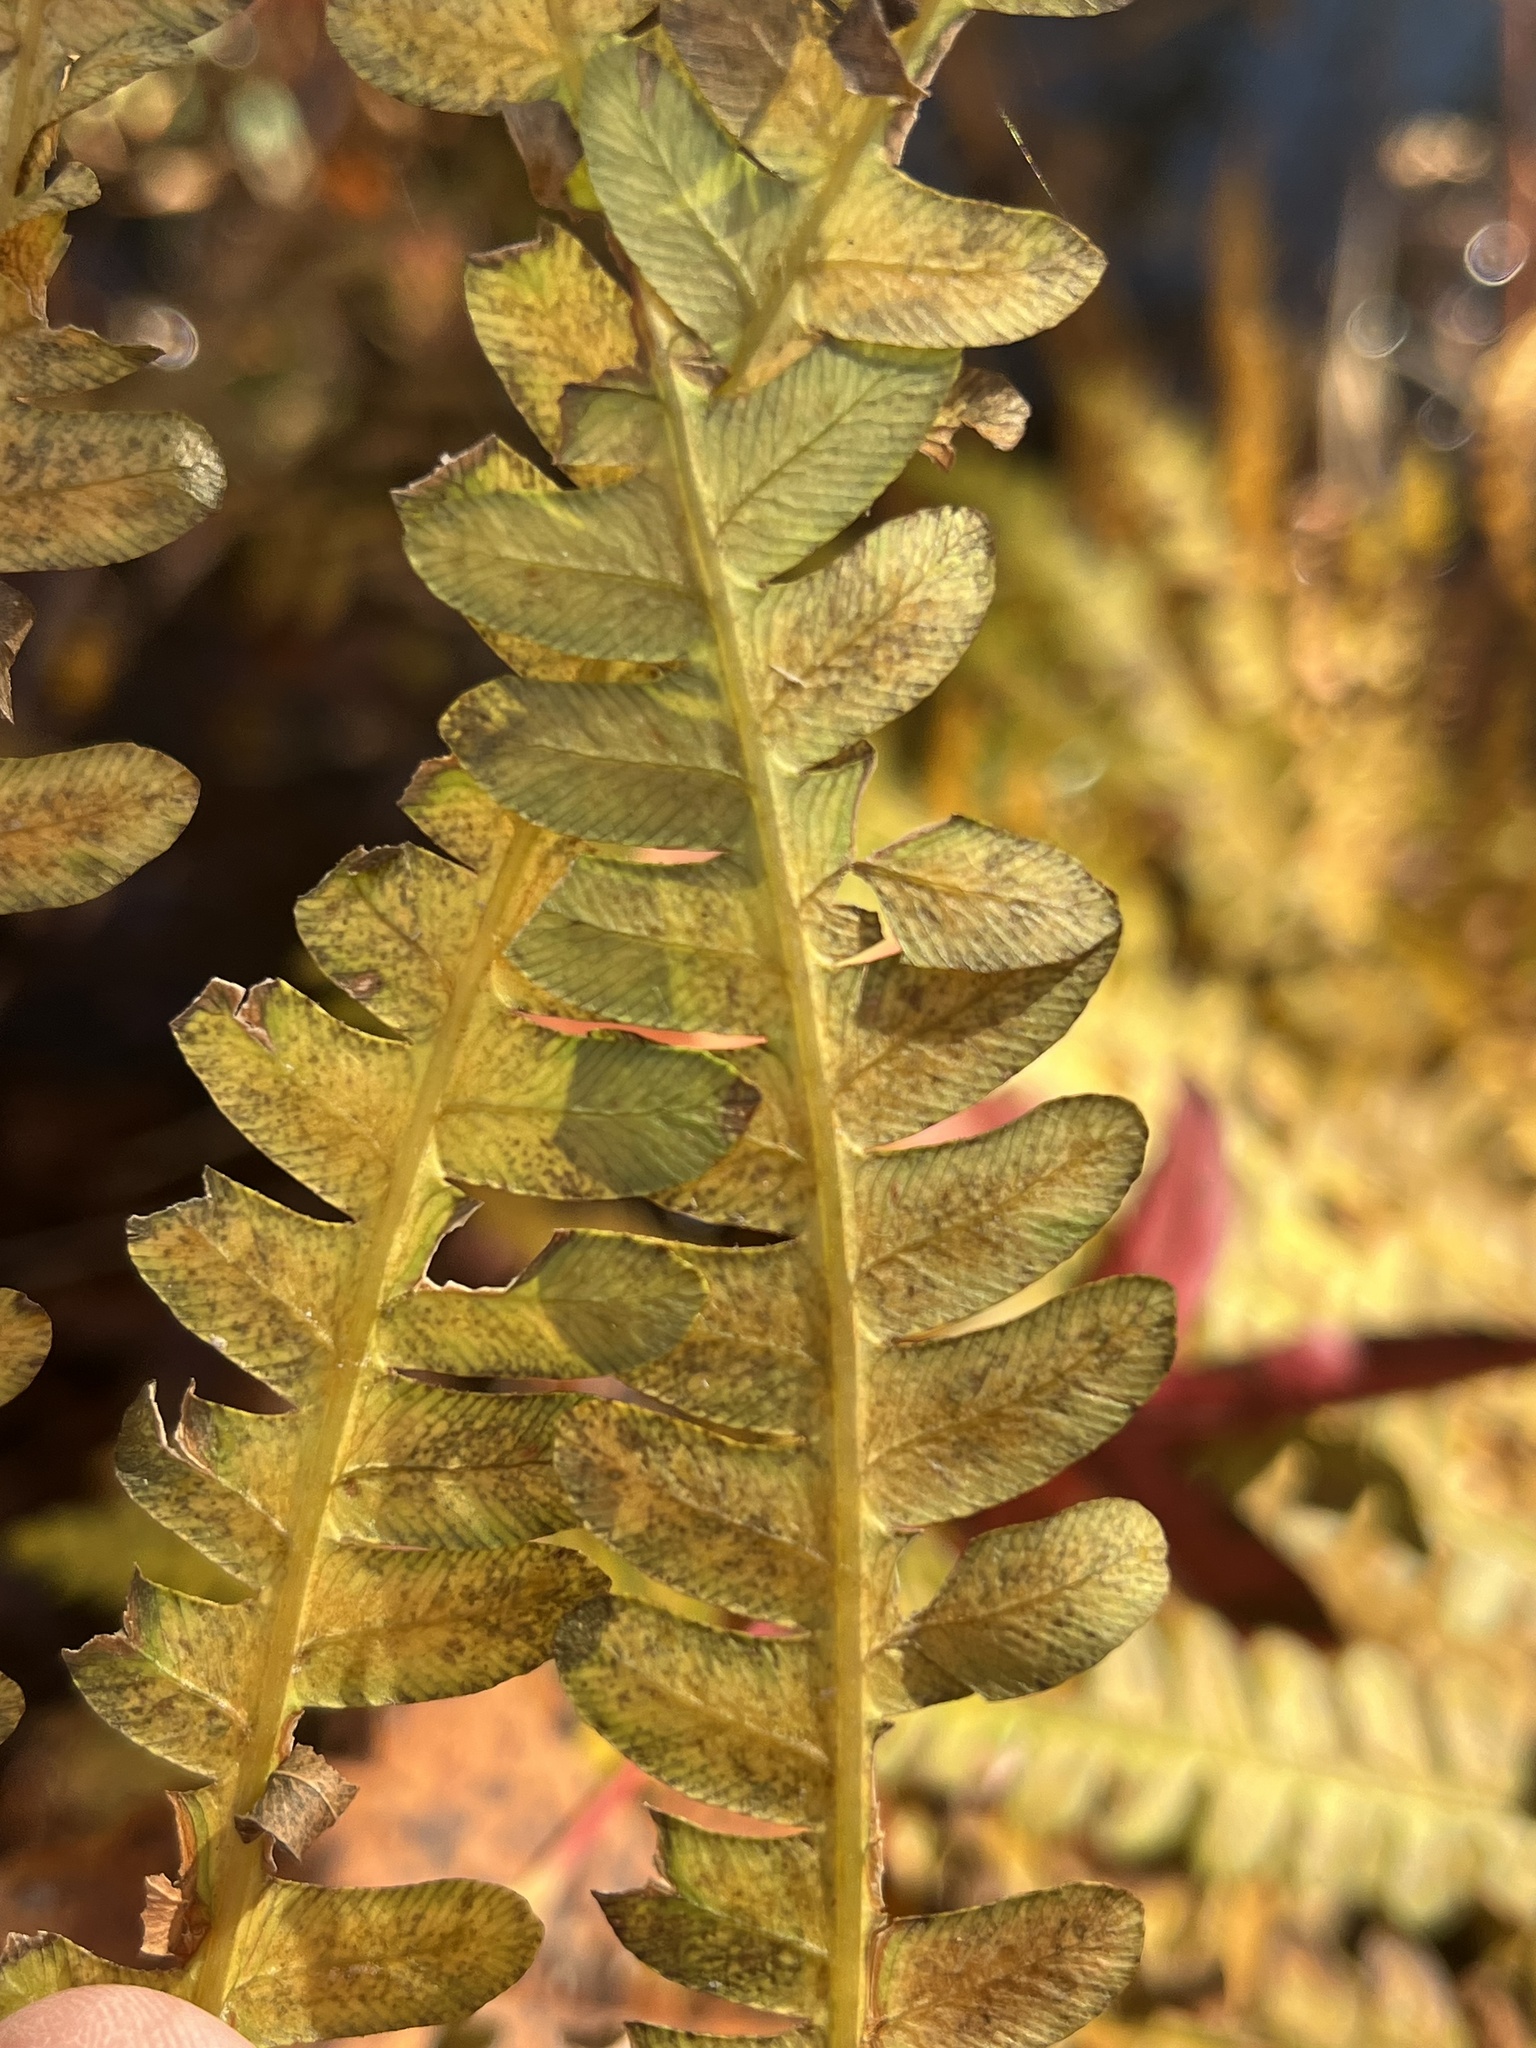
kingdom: Plantae
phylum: Tracheophyta
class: Polypodiopsida
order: Osmundales
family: Osmundaceae
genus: Osmundastrum
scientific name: Osmundastrum cinnamomeum
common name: Cinnamon fern
